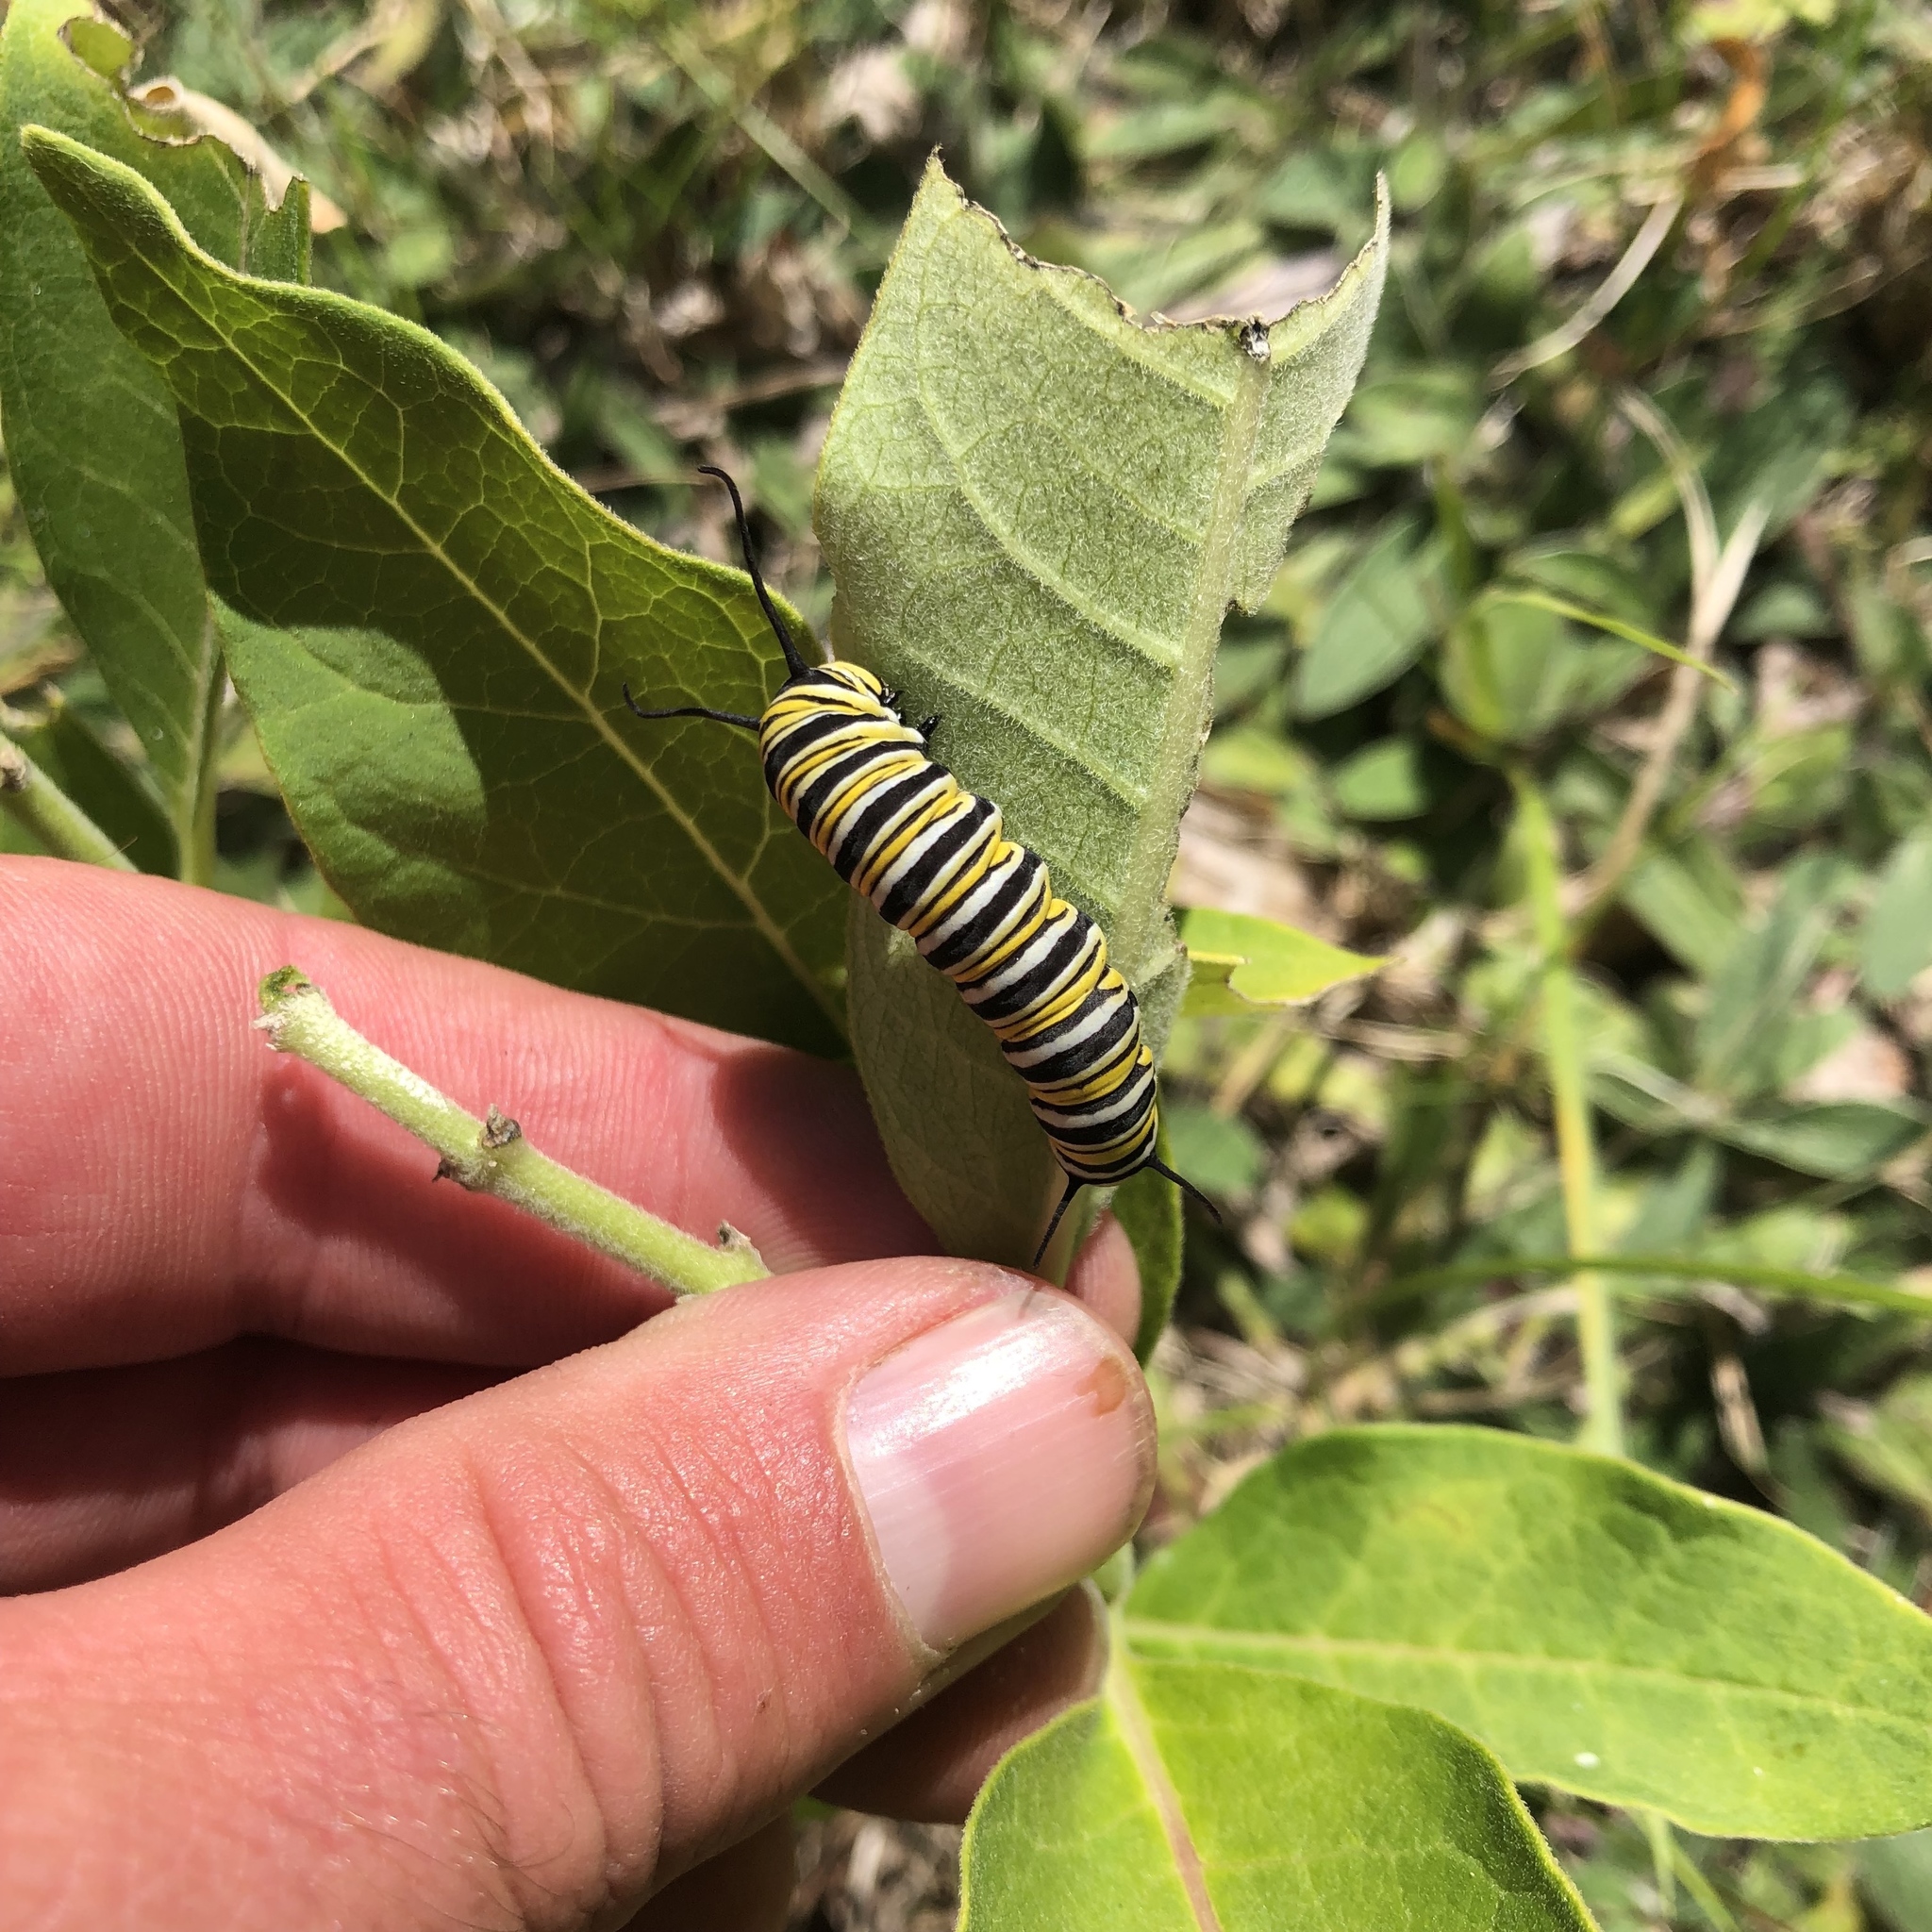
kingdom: Animalia
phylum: Arthropoda
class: Insecta
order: Lepidoptera
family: Nymphalidae
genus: Danaus
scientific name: Danaus plexippus
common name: Monarch
